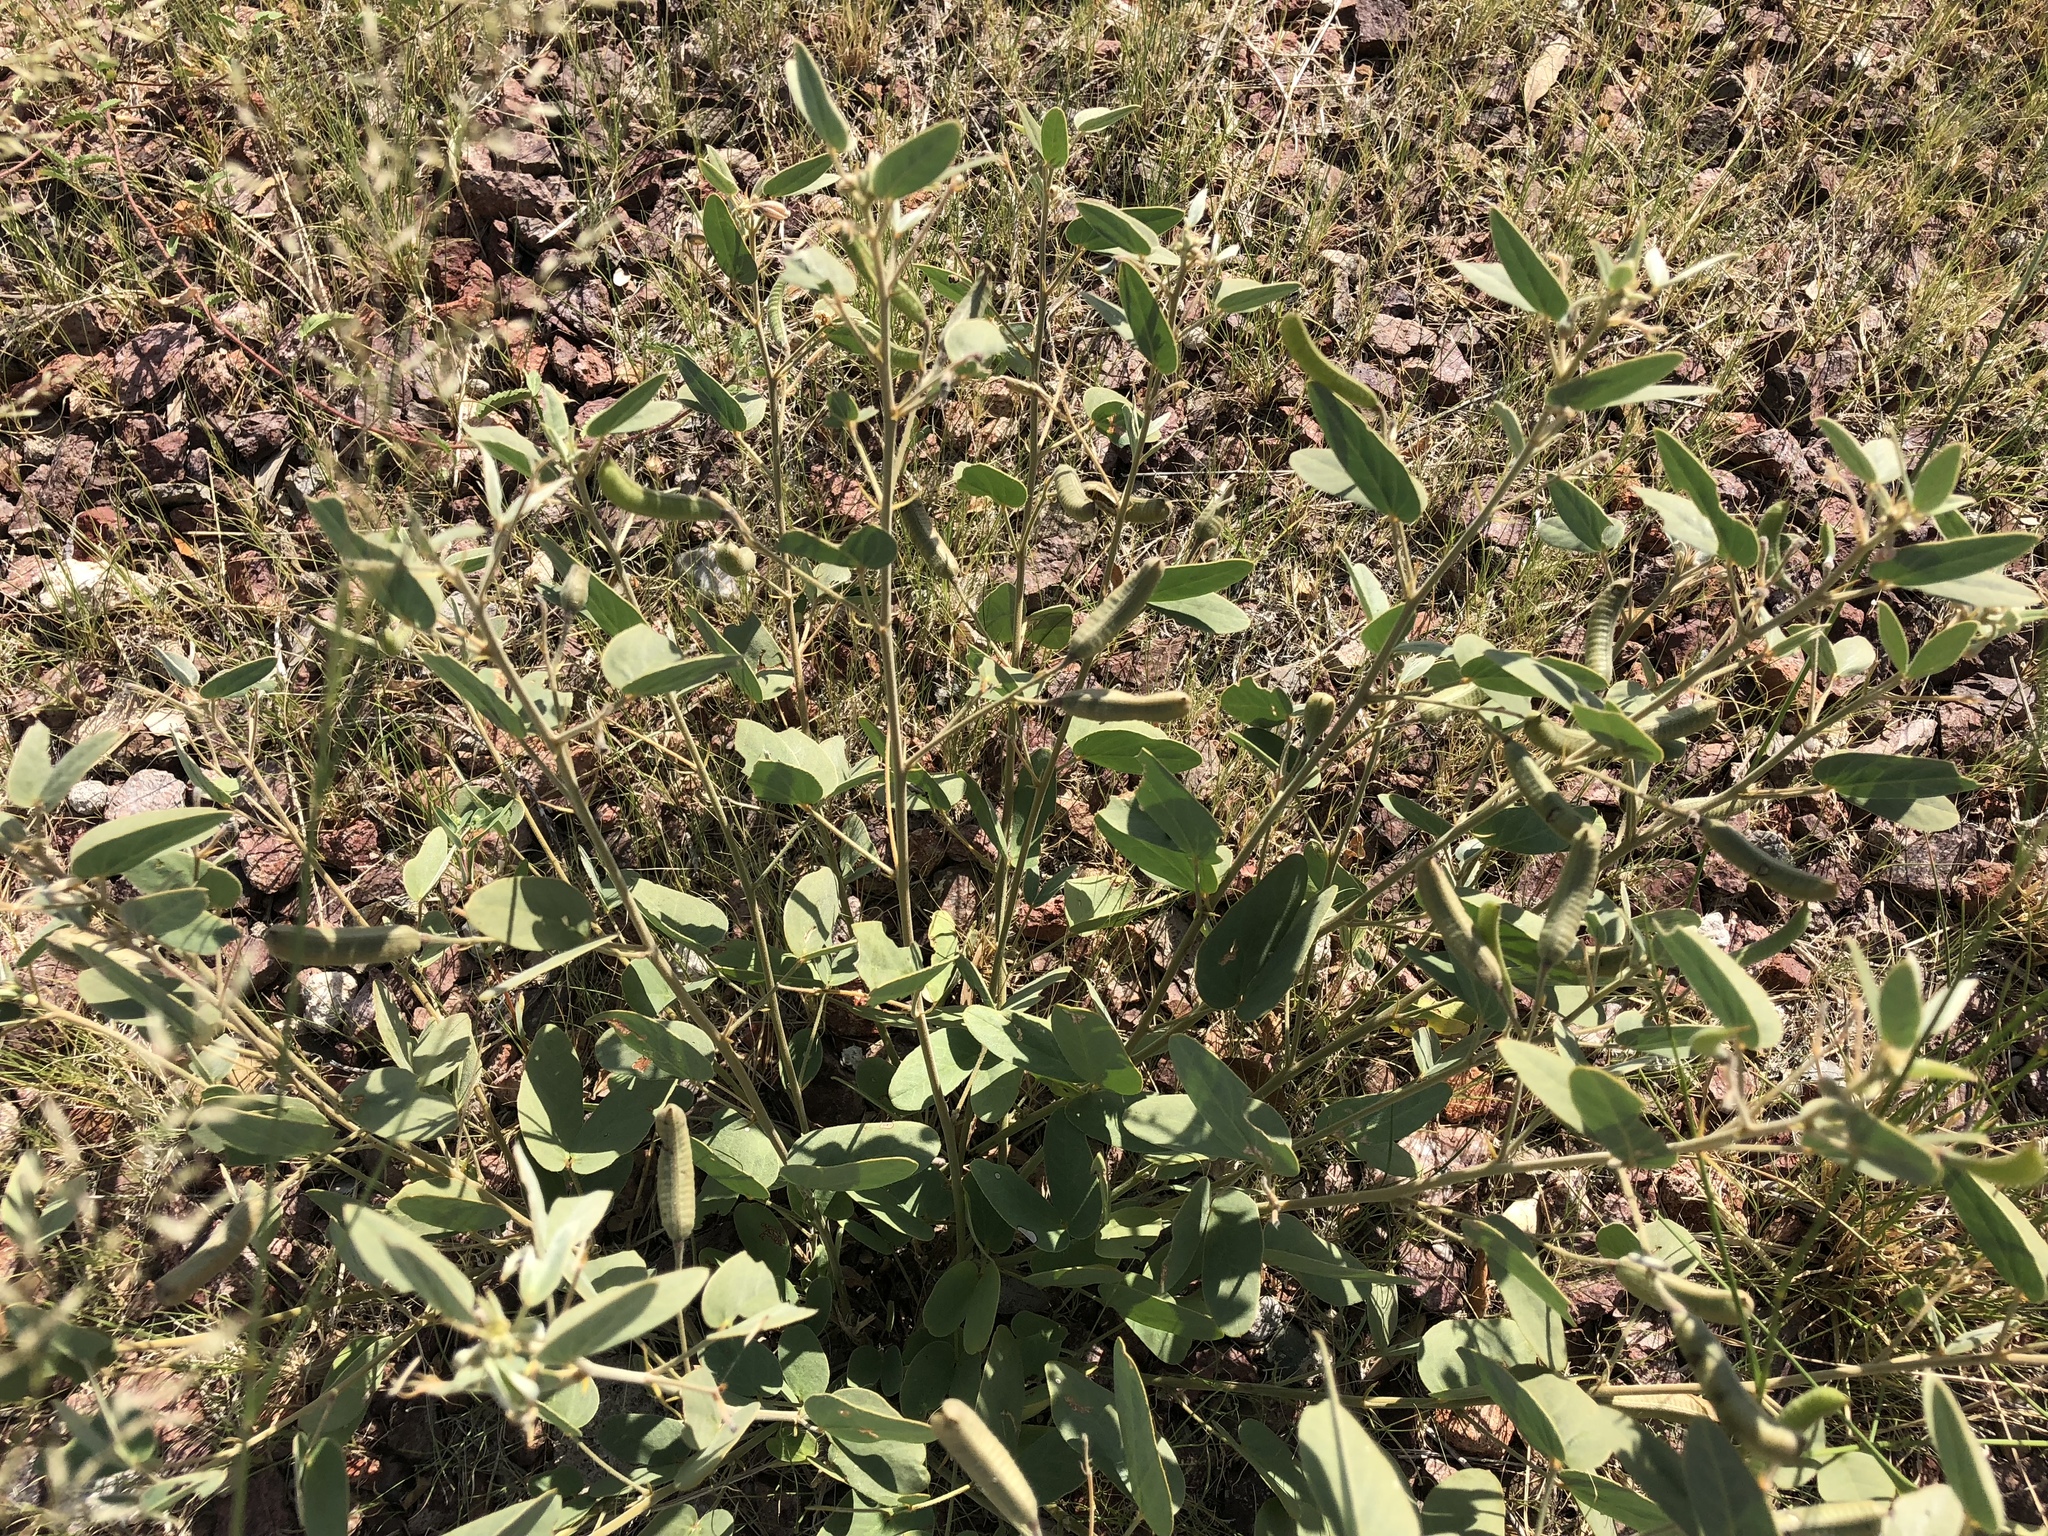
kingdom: Plantae
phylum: Tracheophyta
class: Magnoliopsida
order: Fabales
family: Fabaceae
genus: Senna
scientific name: Senna bauhinioides
